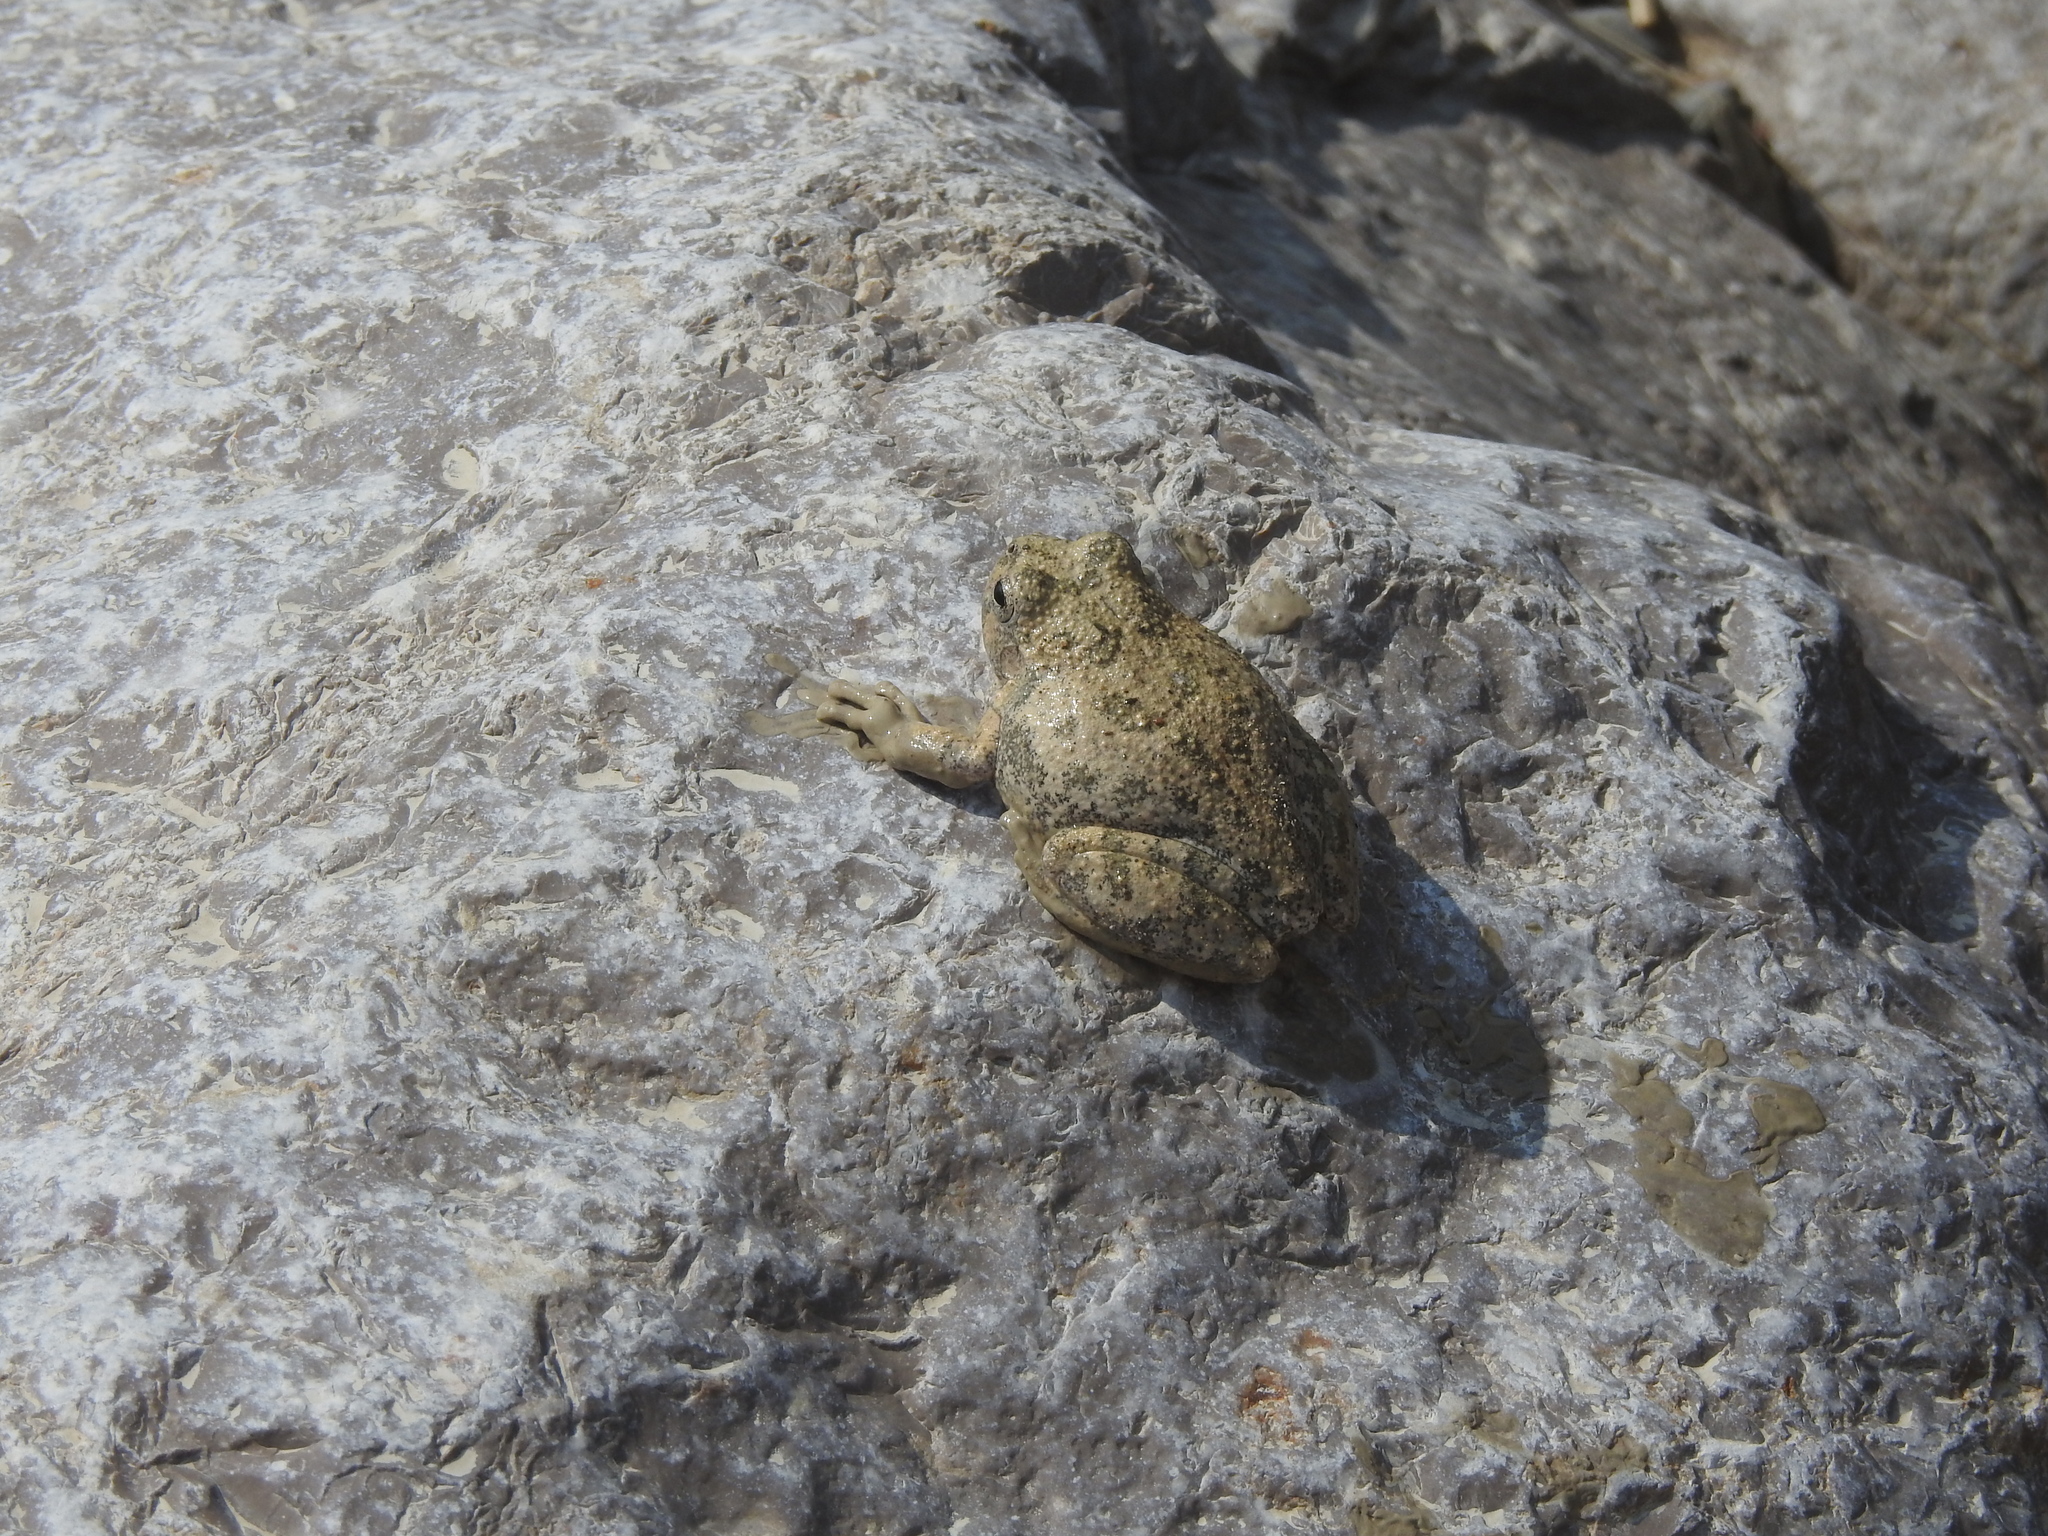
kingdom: Animalia
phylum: Chordata
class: Amphibia
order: Anura
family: Hylidae
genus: Dryophytes
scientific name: Dryophytes arenicolor
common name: Canyon treefrog
